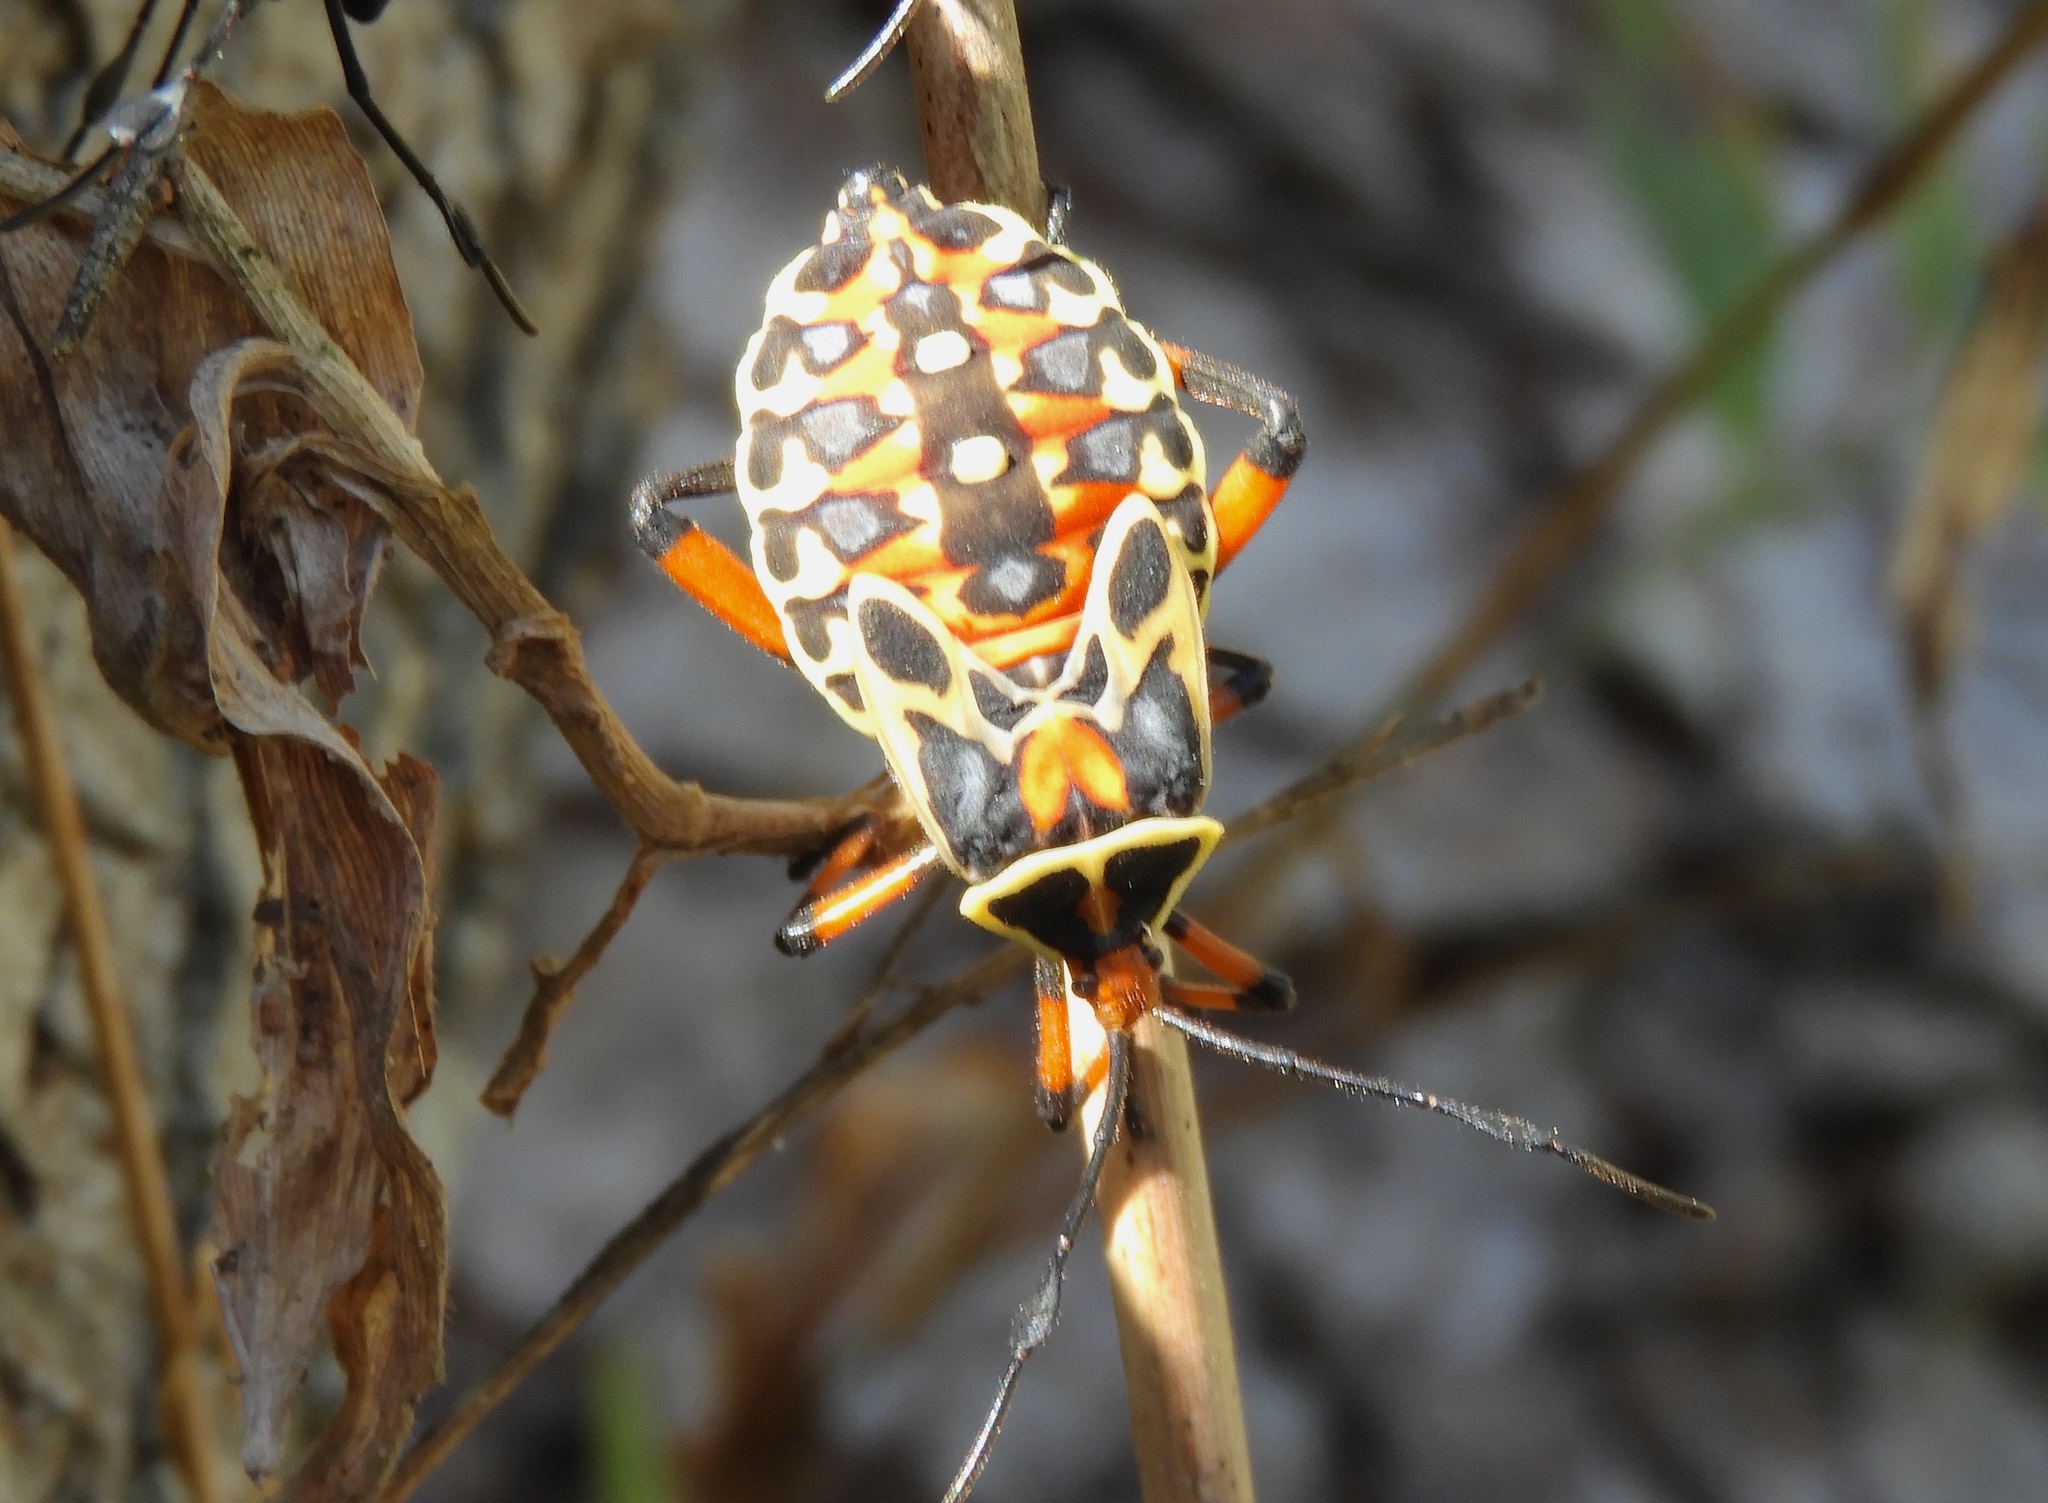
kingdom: Animalia
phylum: Arthropoda
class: Insecta
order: Hemiptera
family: Coreidae
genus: Pachylis
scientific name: Pachylis nervosus
